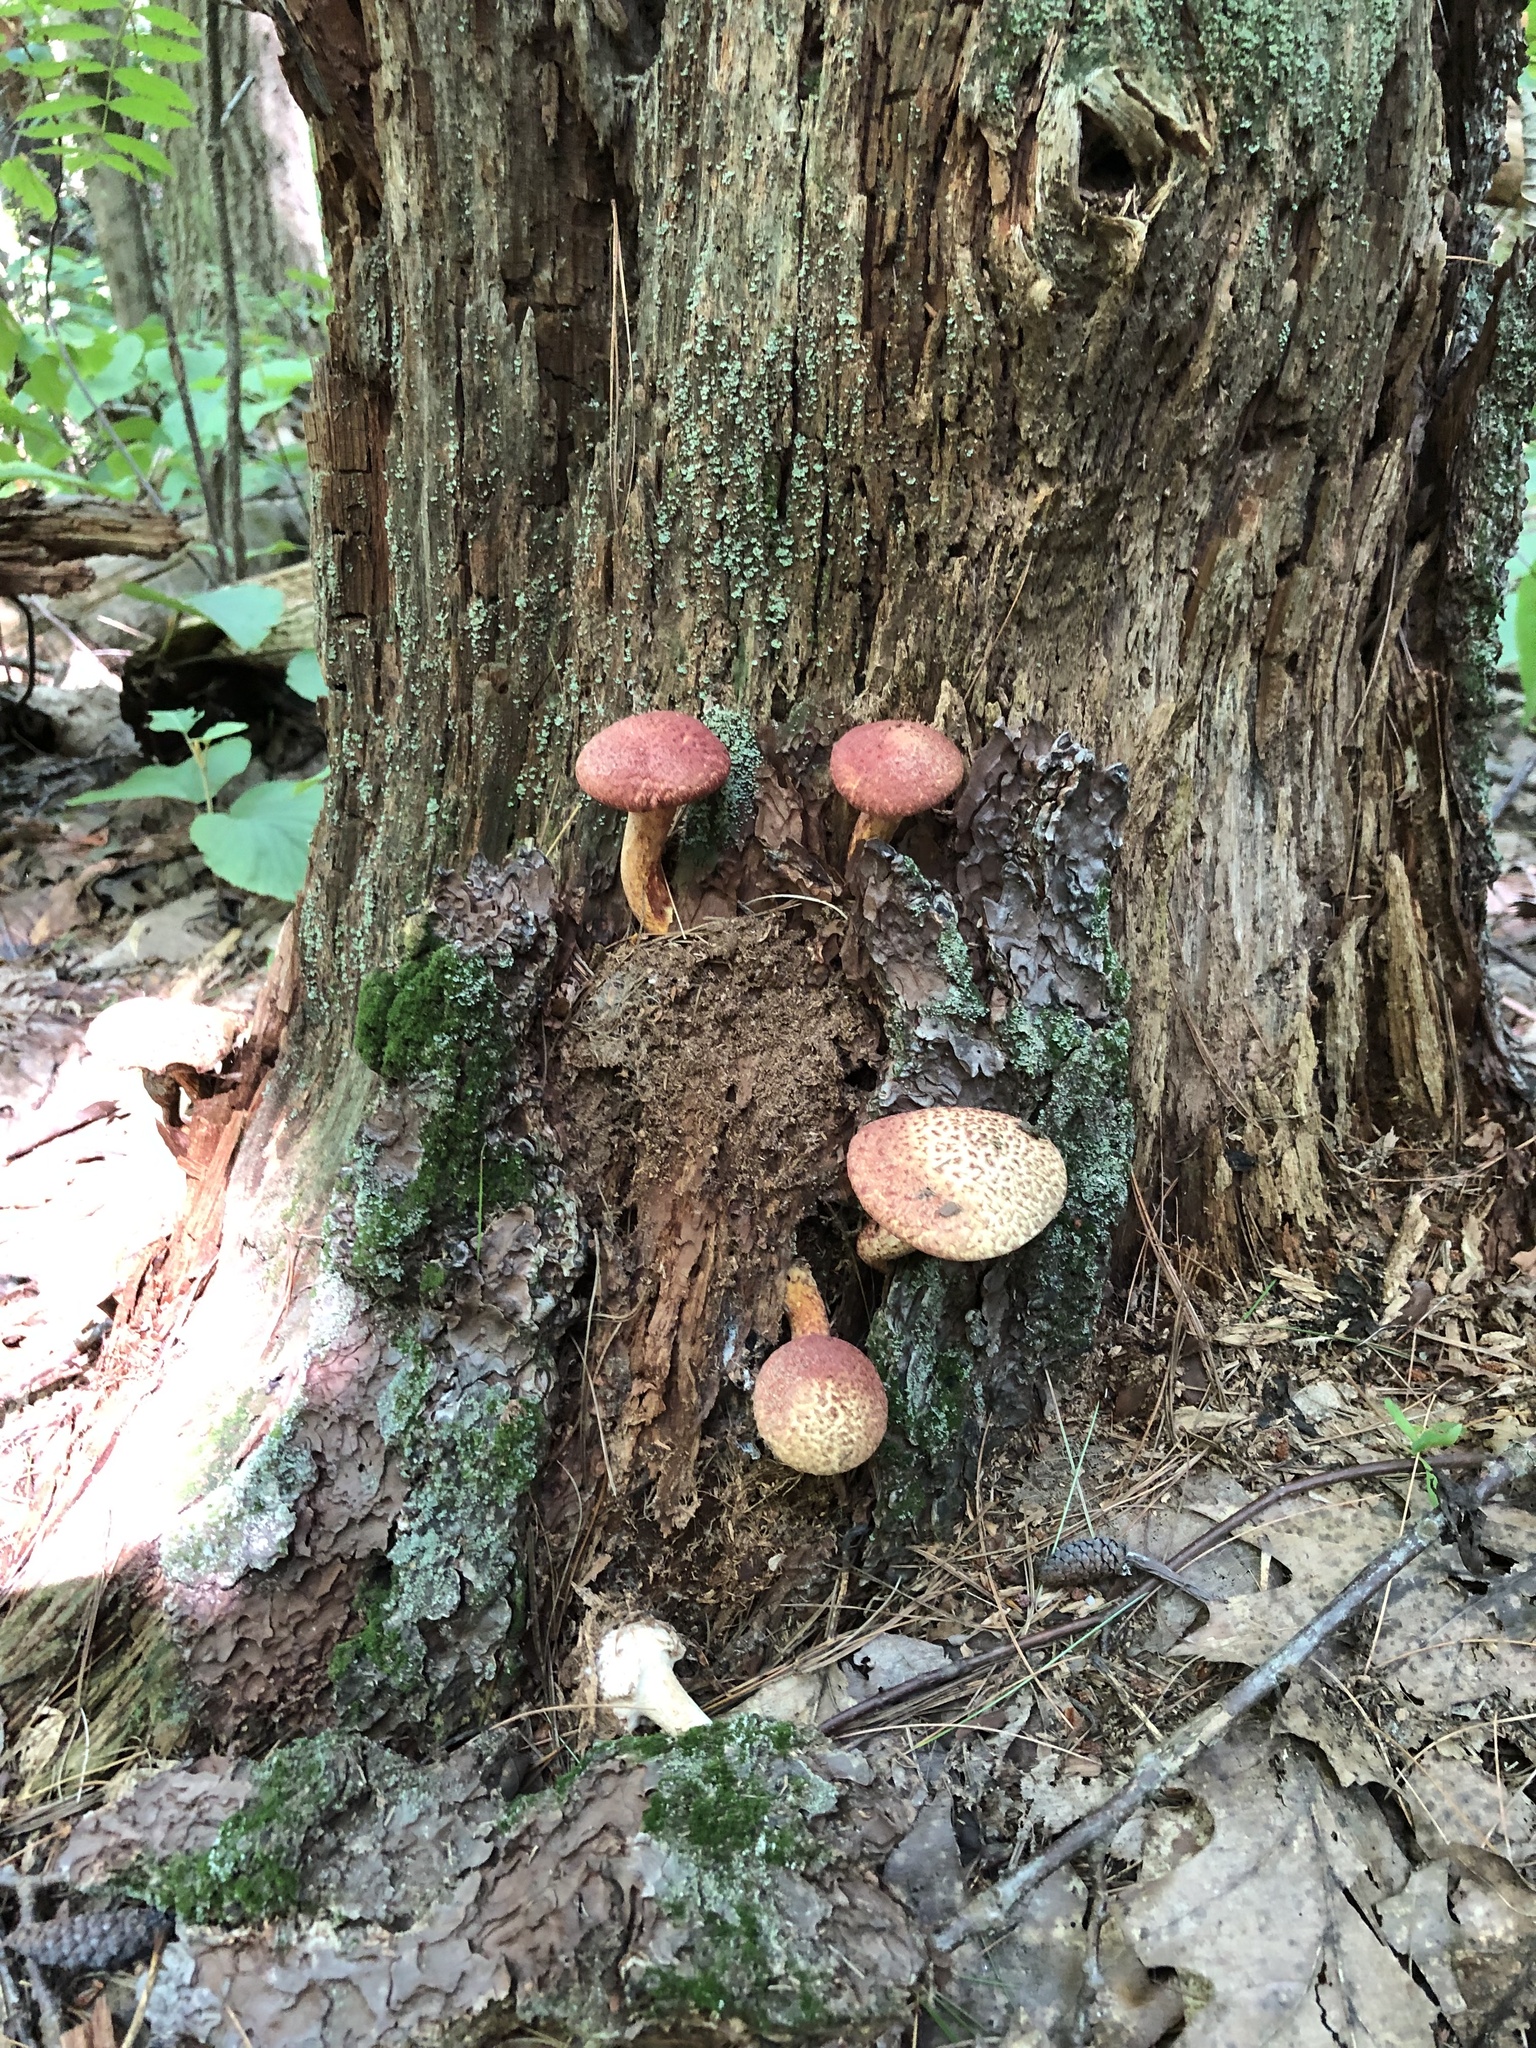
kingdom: Fungi
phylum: Basidiomycota
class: Agaricomycetes
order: Boletales
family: Suillaceae
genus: Suillus
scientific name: Suillus spraguei
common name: Painted suillus
